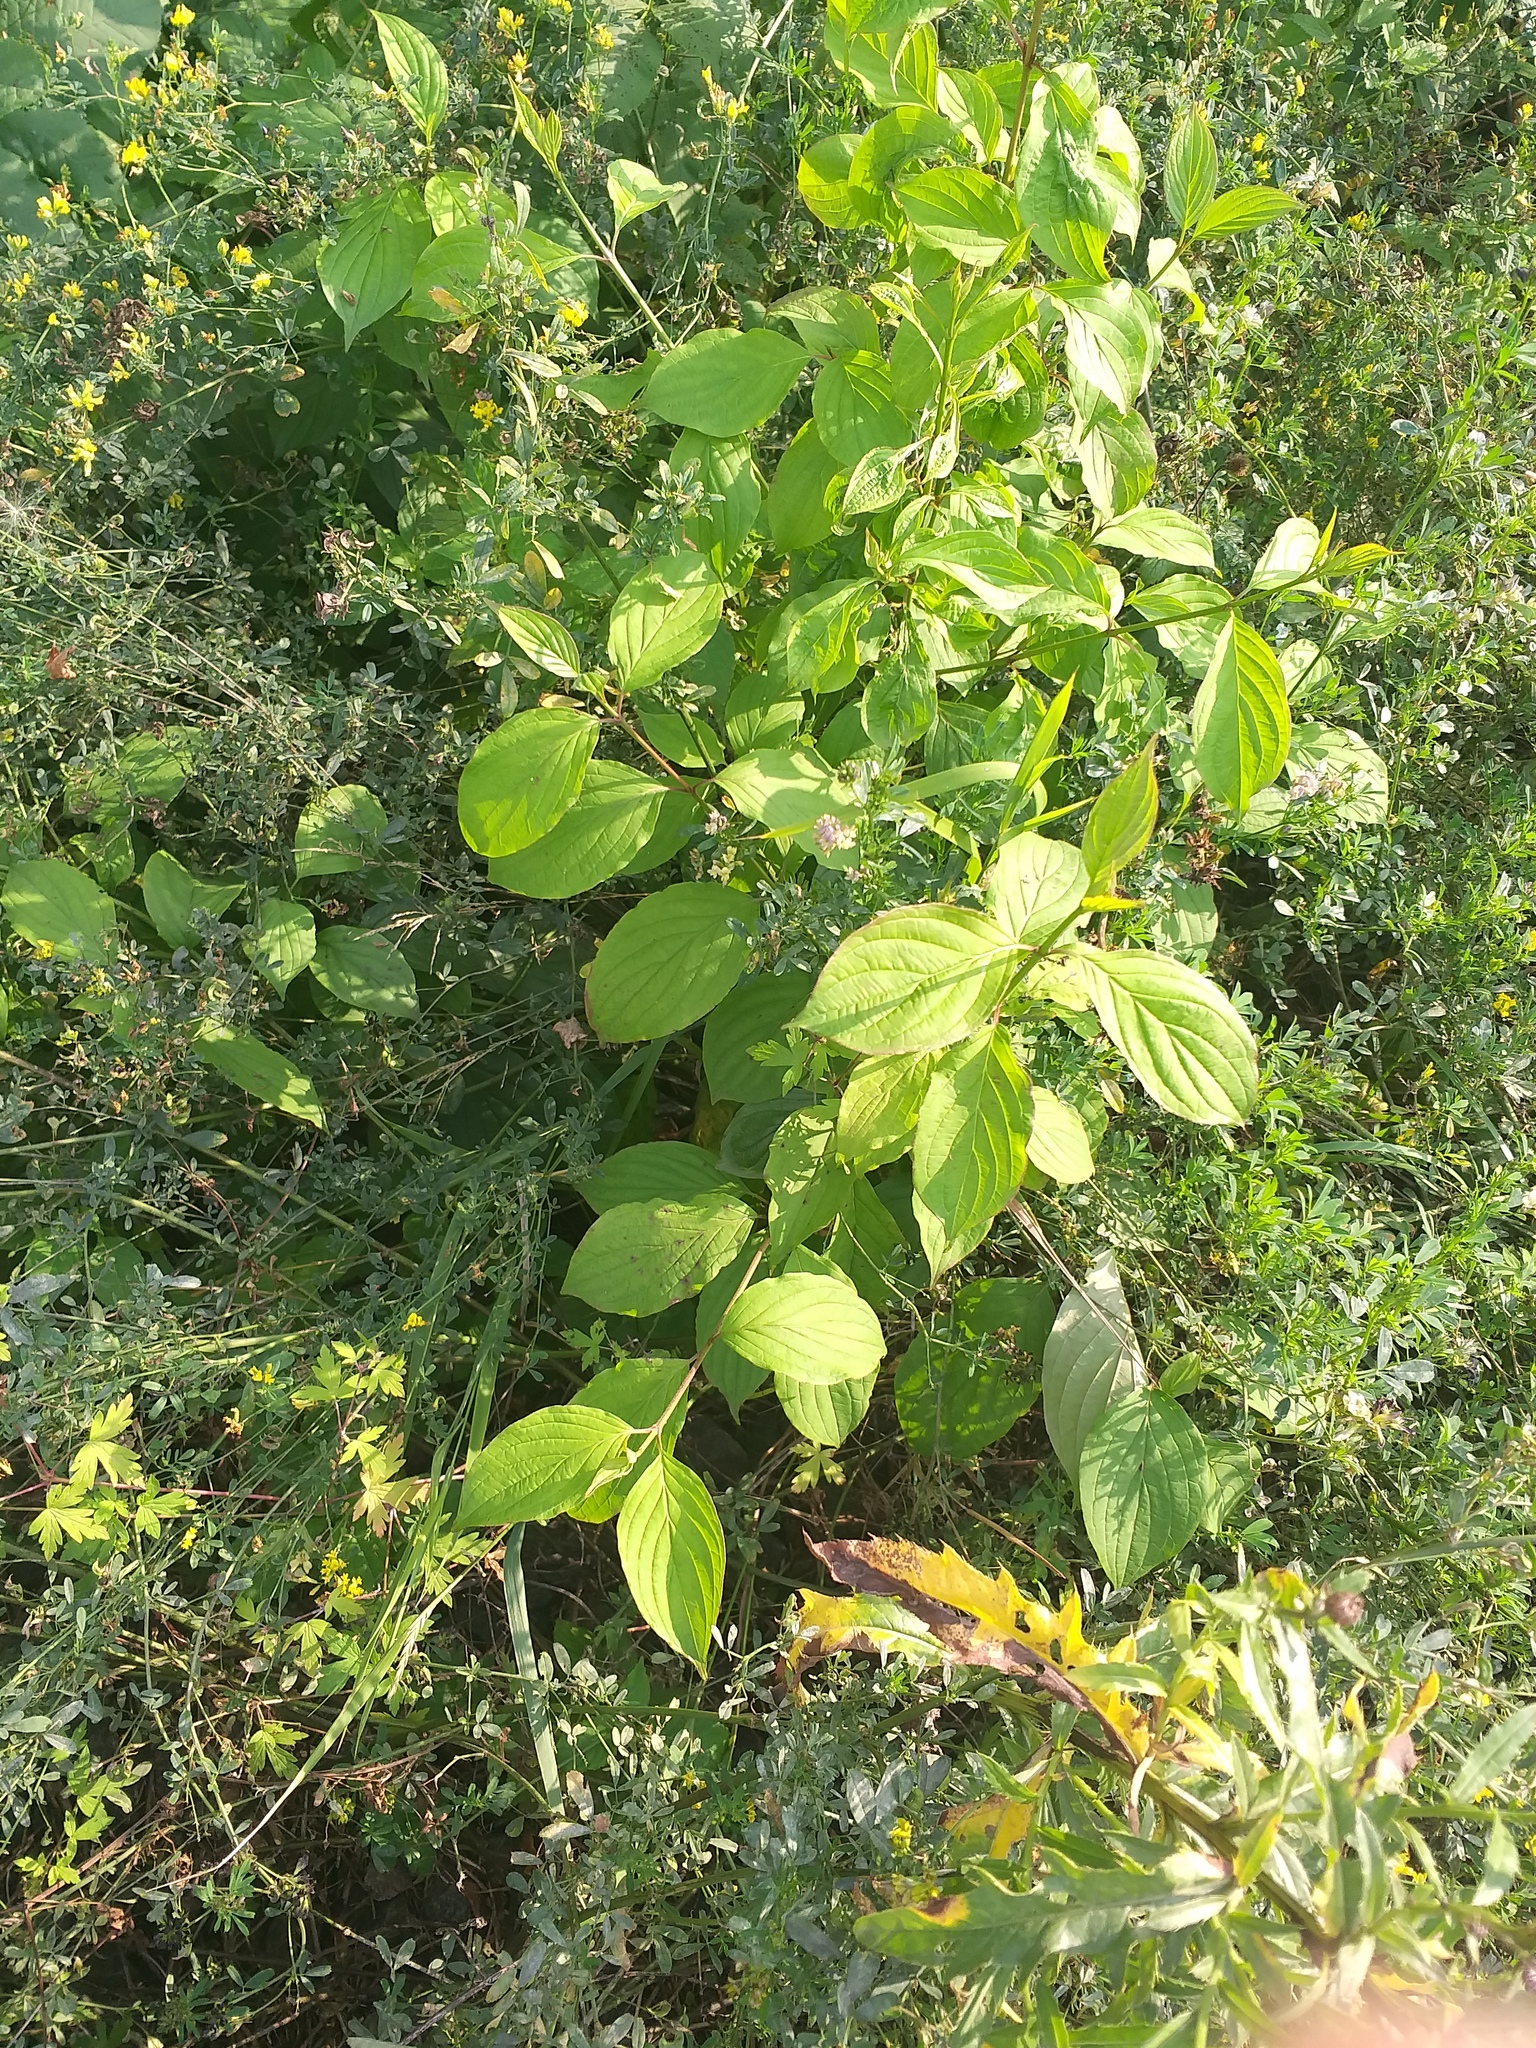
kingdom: Plantae
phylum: Tracheophyta
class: Magnoliopsida
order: Cornales
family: Cornaceae
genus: Cornus
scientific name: Cornus sanguinea
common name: Dogwood
